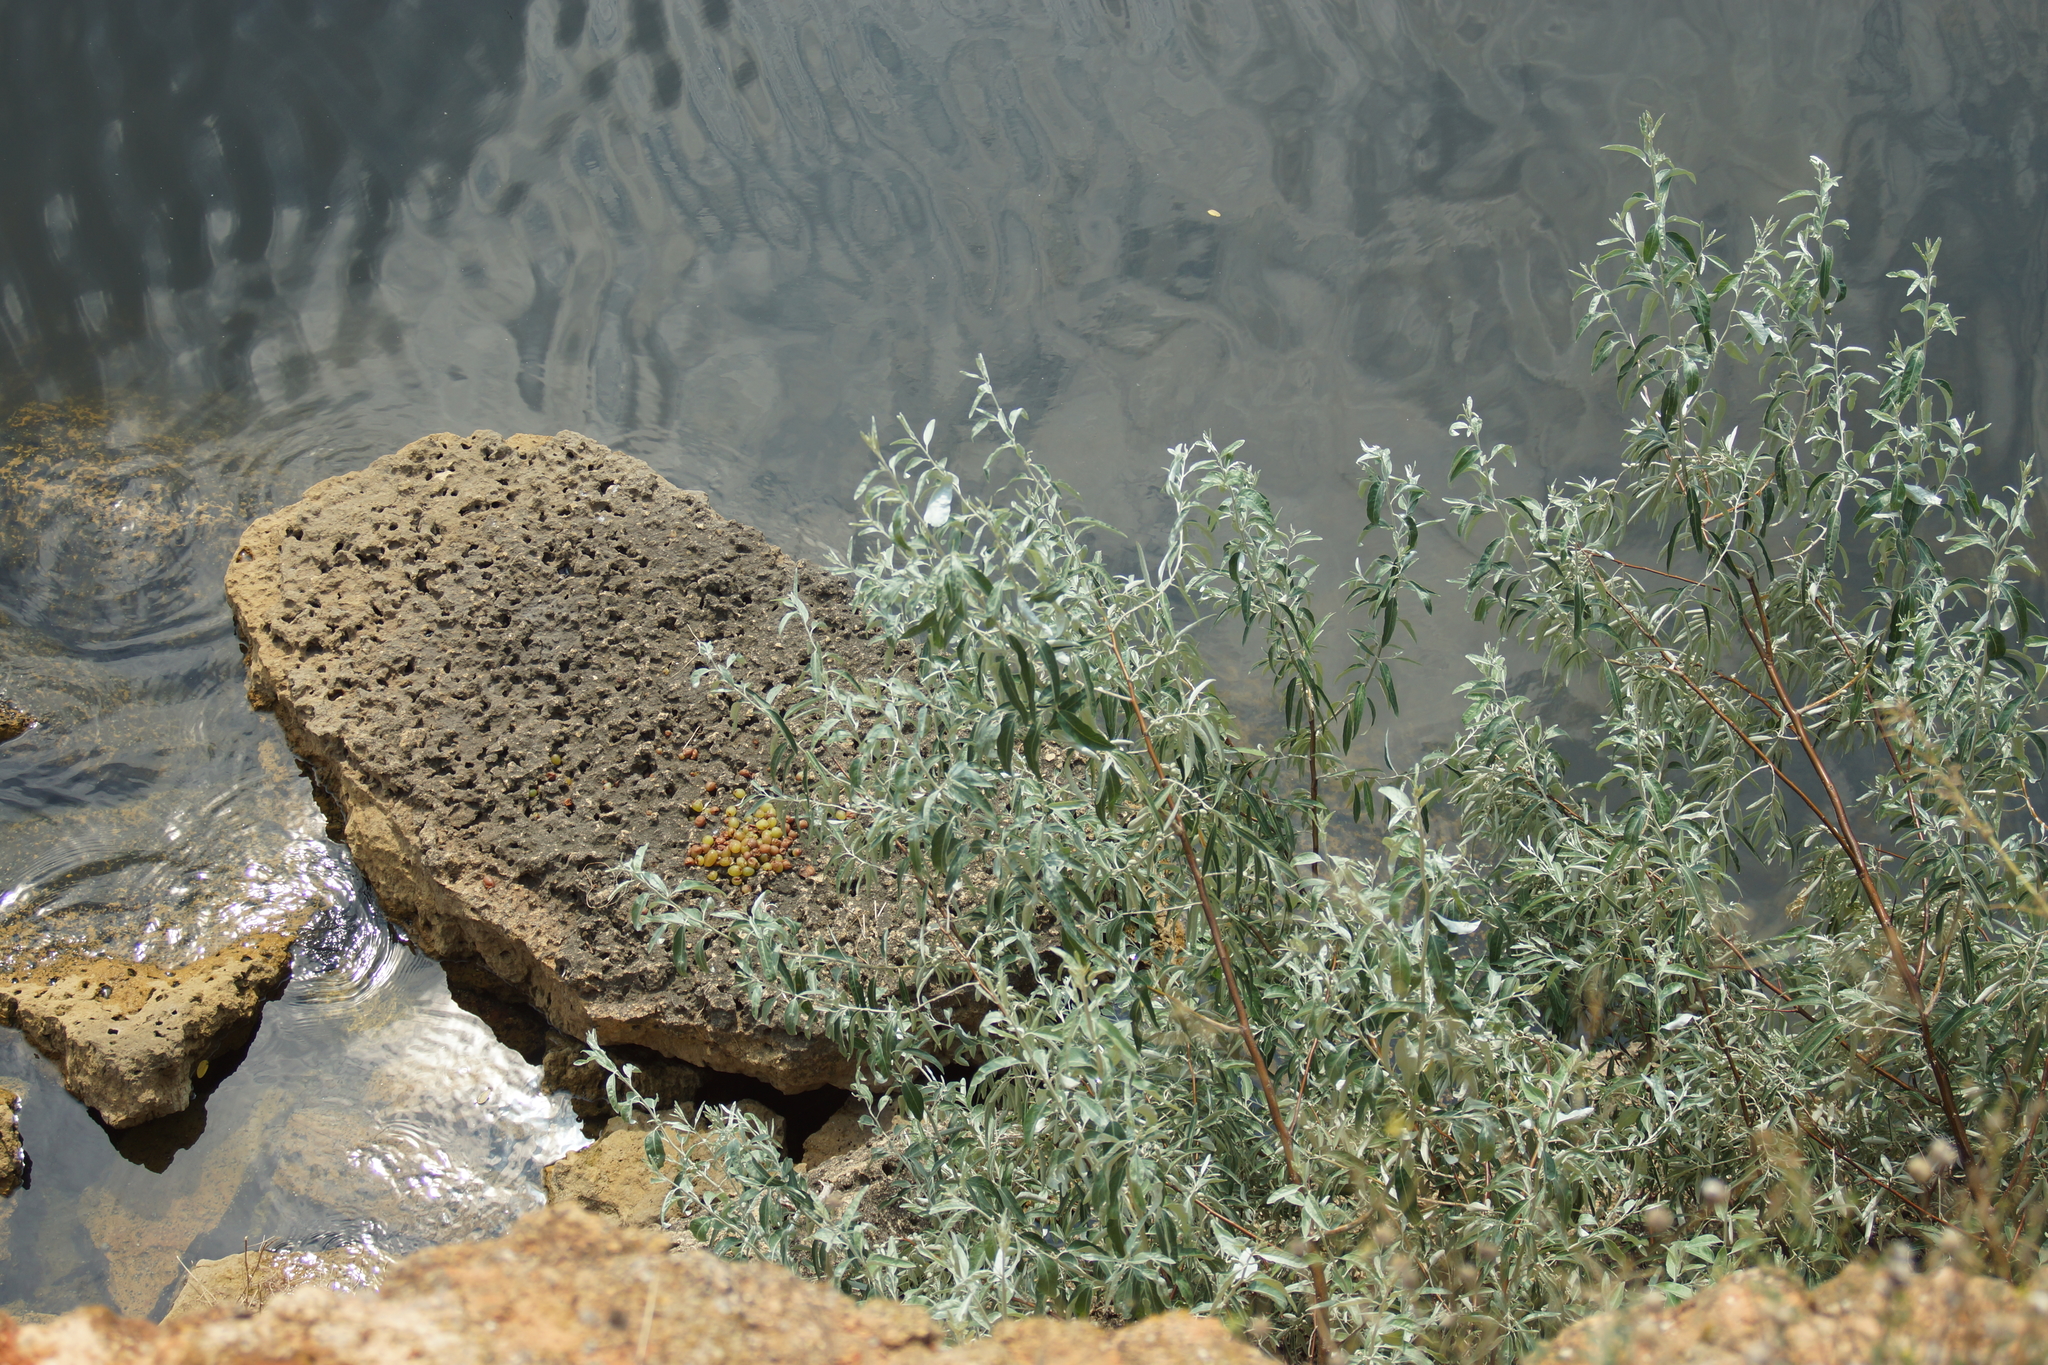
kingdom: Plantae
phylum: Tracheophyta
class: Magnoliopsida
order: Rosales
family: Elaeagnaceae
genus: Elaeagnus
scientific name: Elaeagnus angustifolia
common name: Russian olive
